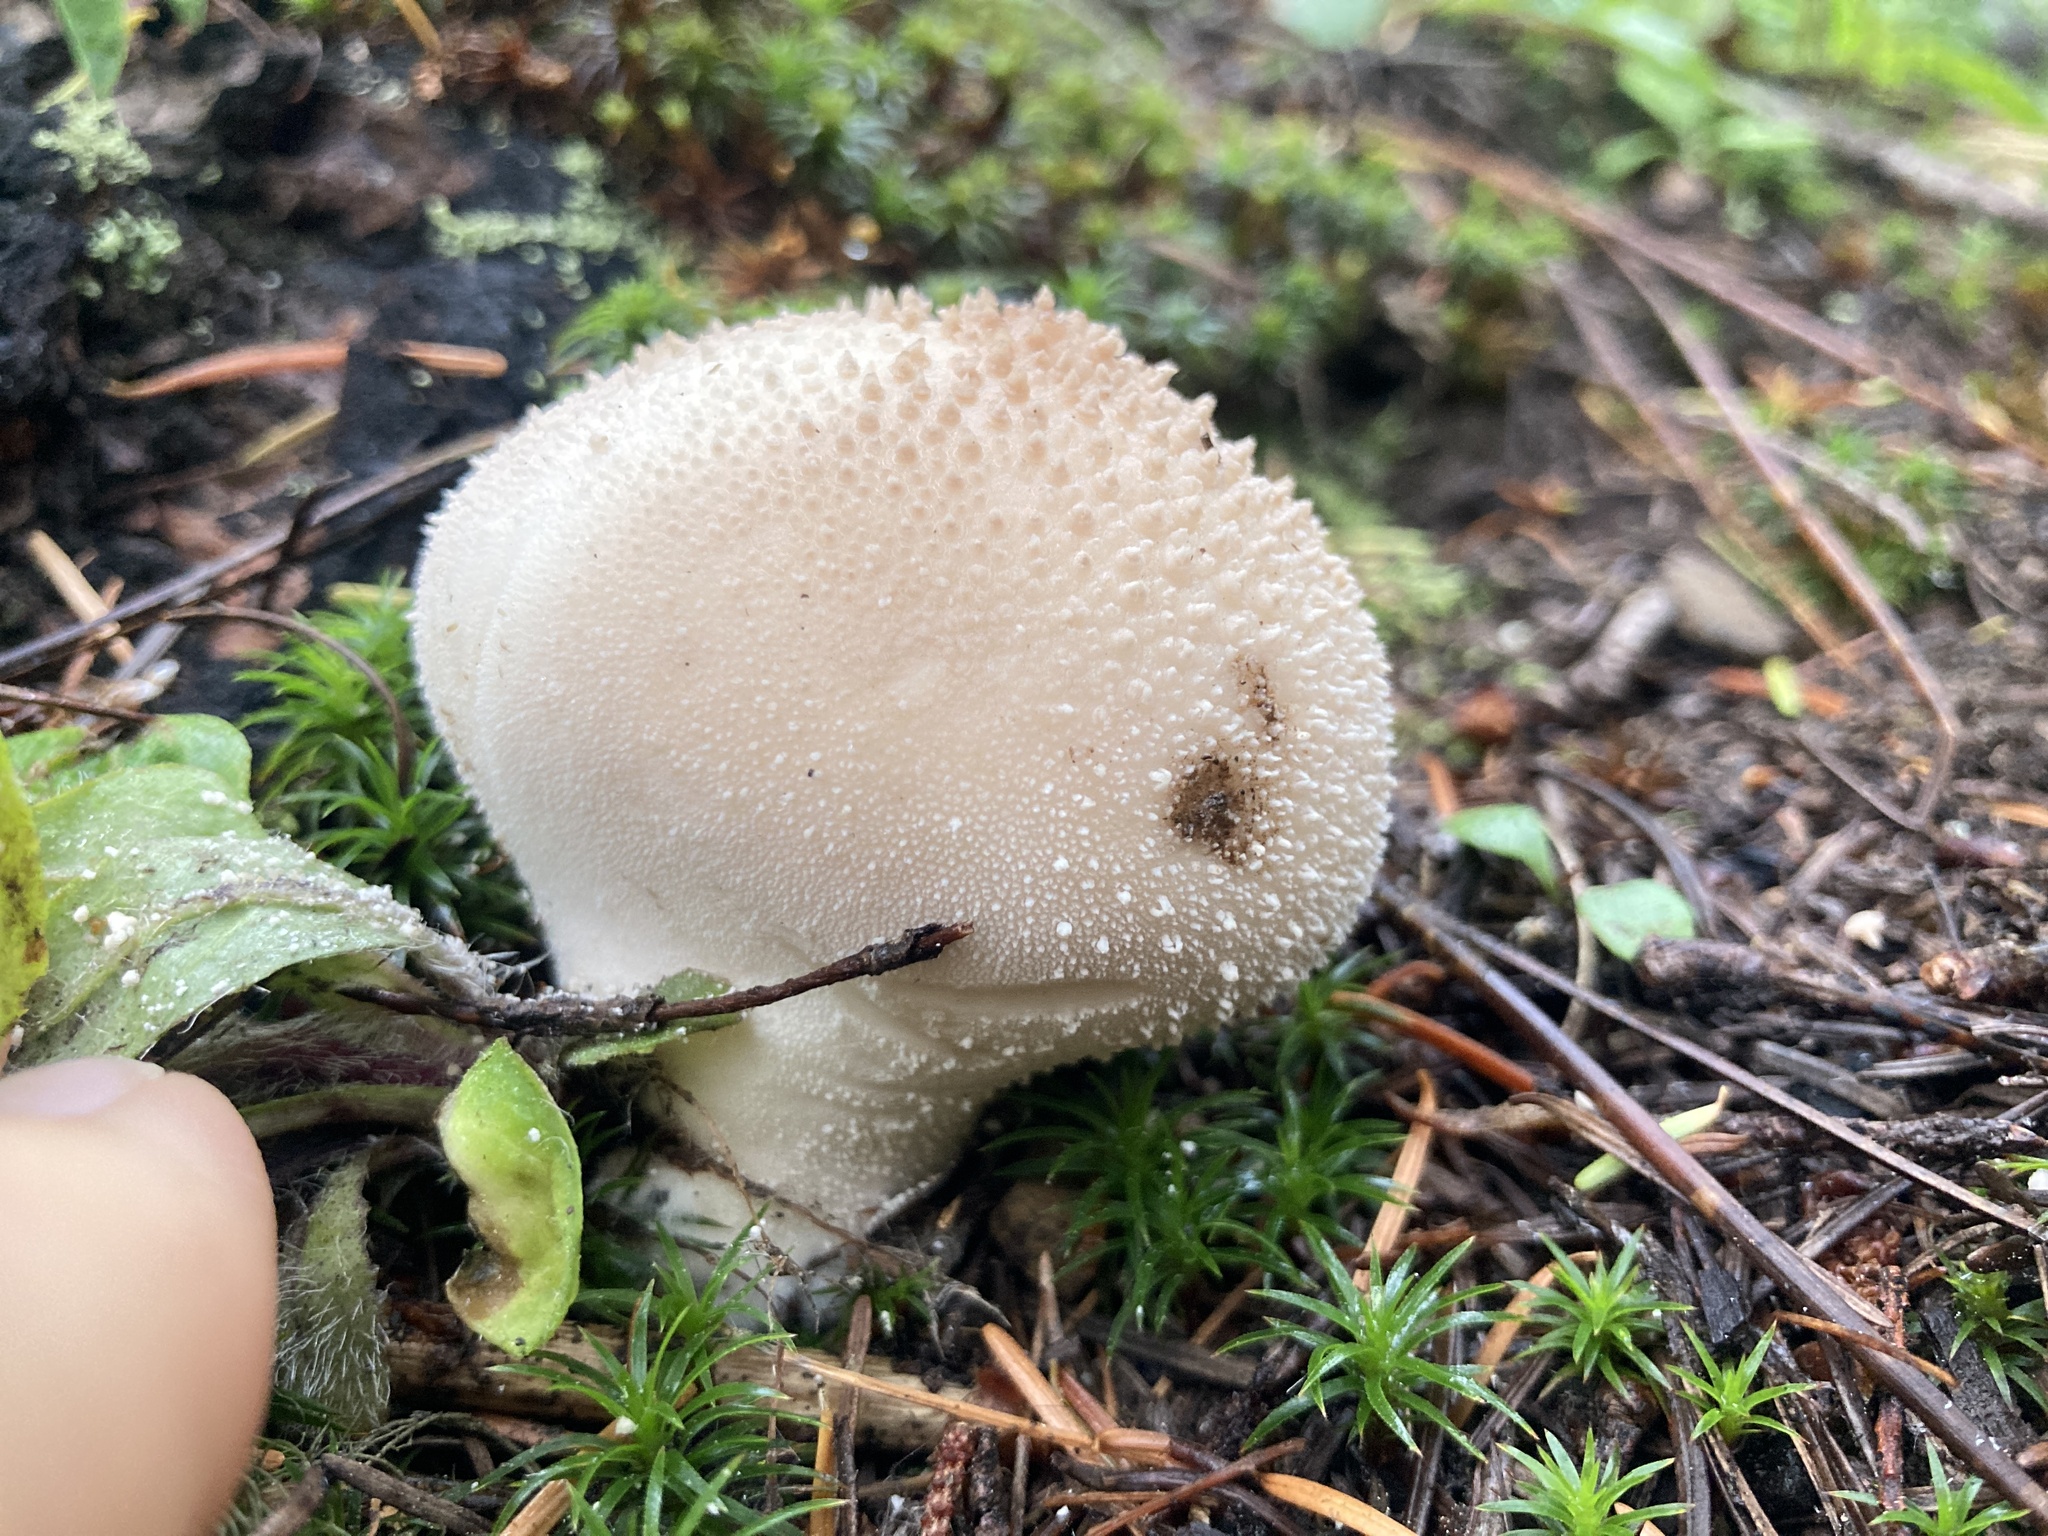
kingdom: Fungi
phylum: Basidiomycota
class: Agaricomycetes
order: Agaricales
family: Lycoperdaceae
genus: Lycoperdon
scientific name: Lycoperdon perlatum
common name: Common puffball
